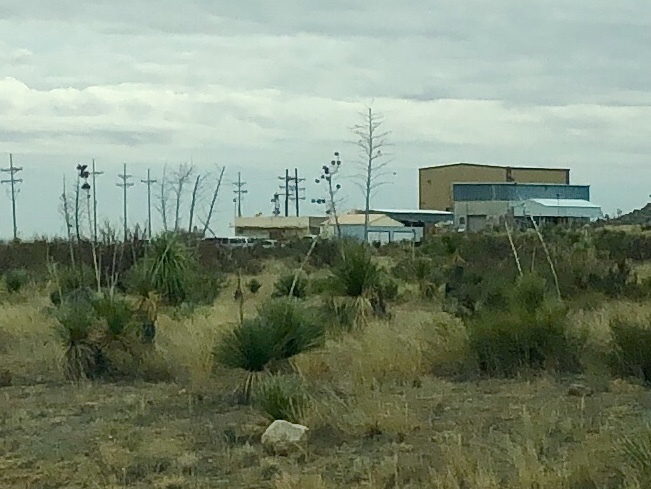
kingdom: Plantae
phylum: Tracheophyta
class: Liliopsida
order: Asparagales
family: Asparagaceae
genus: Yucca
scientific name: Yucca elata
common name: Palmella
